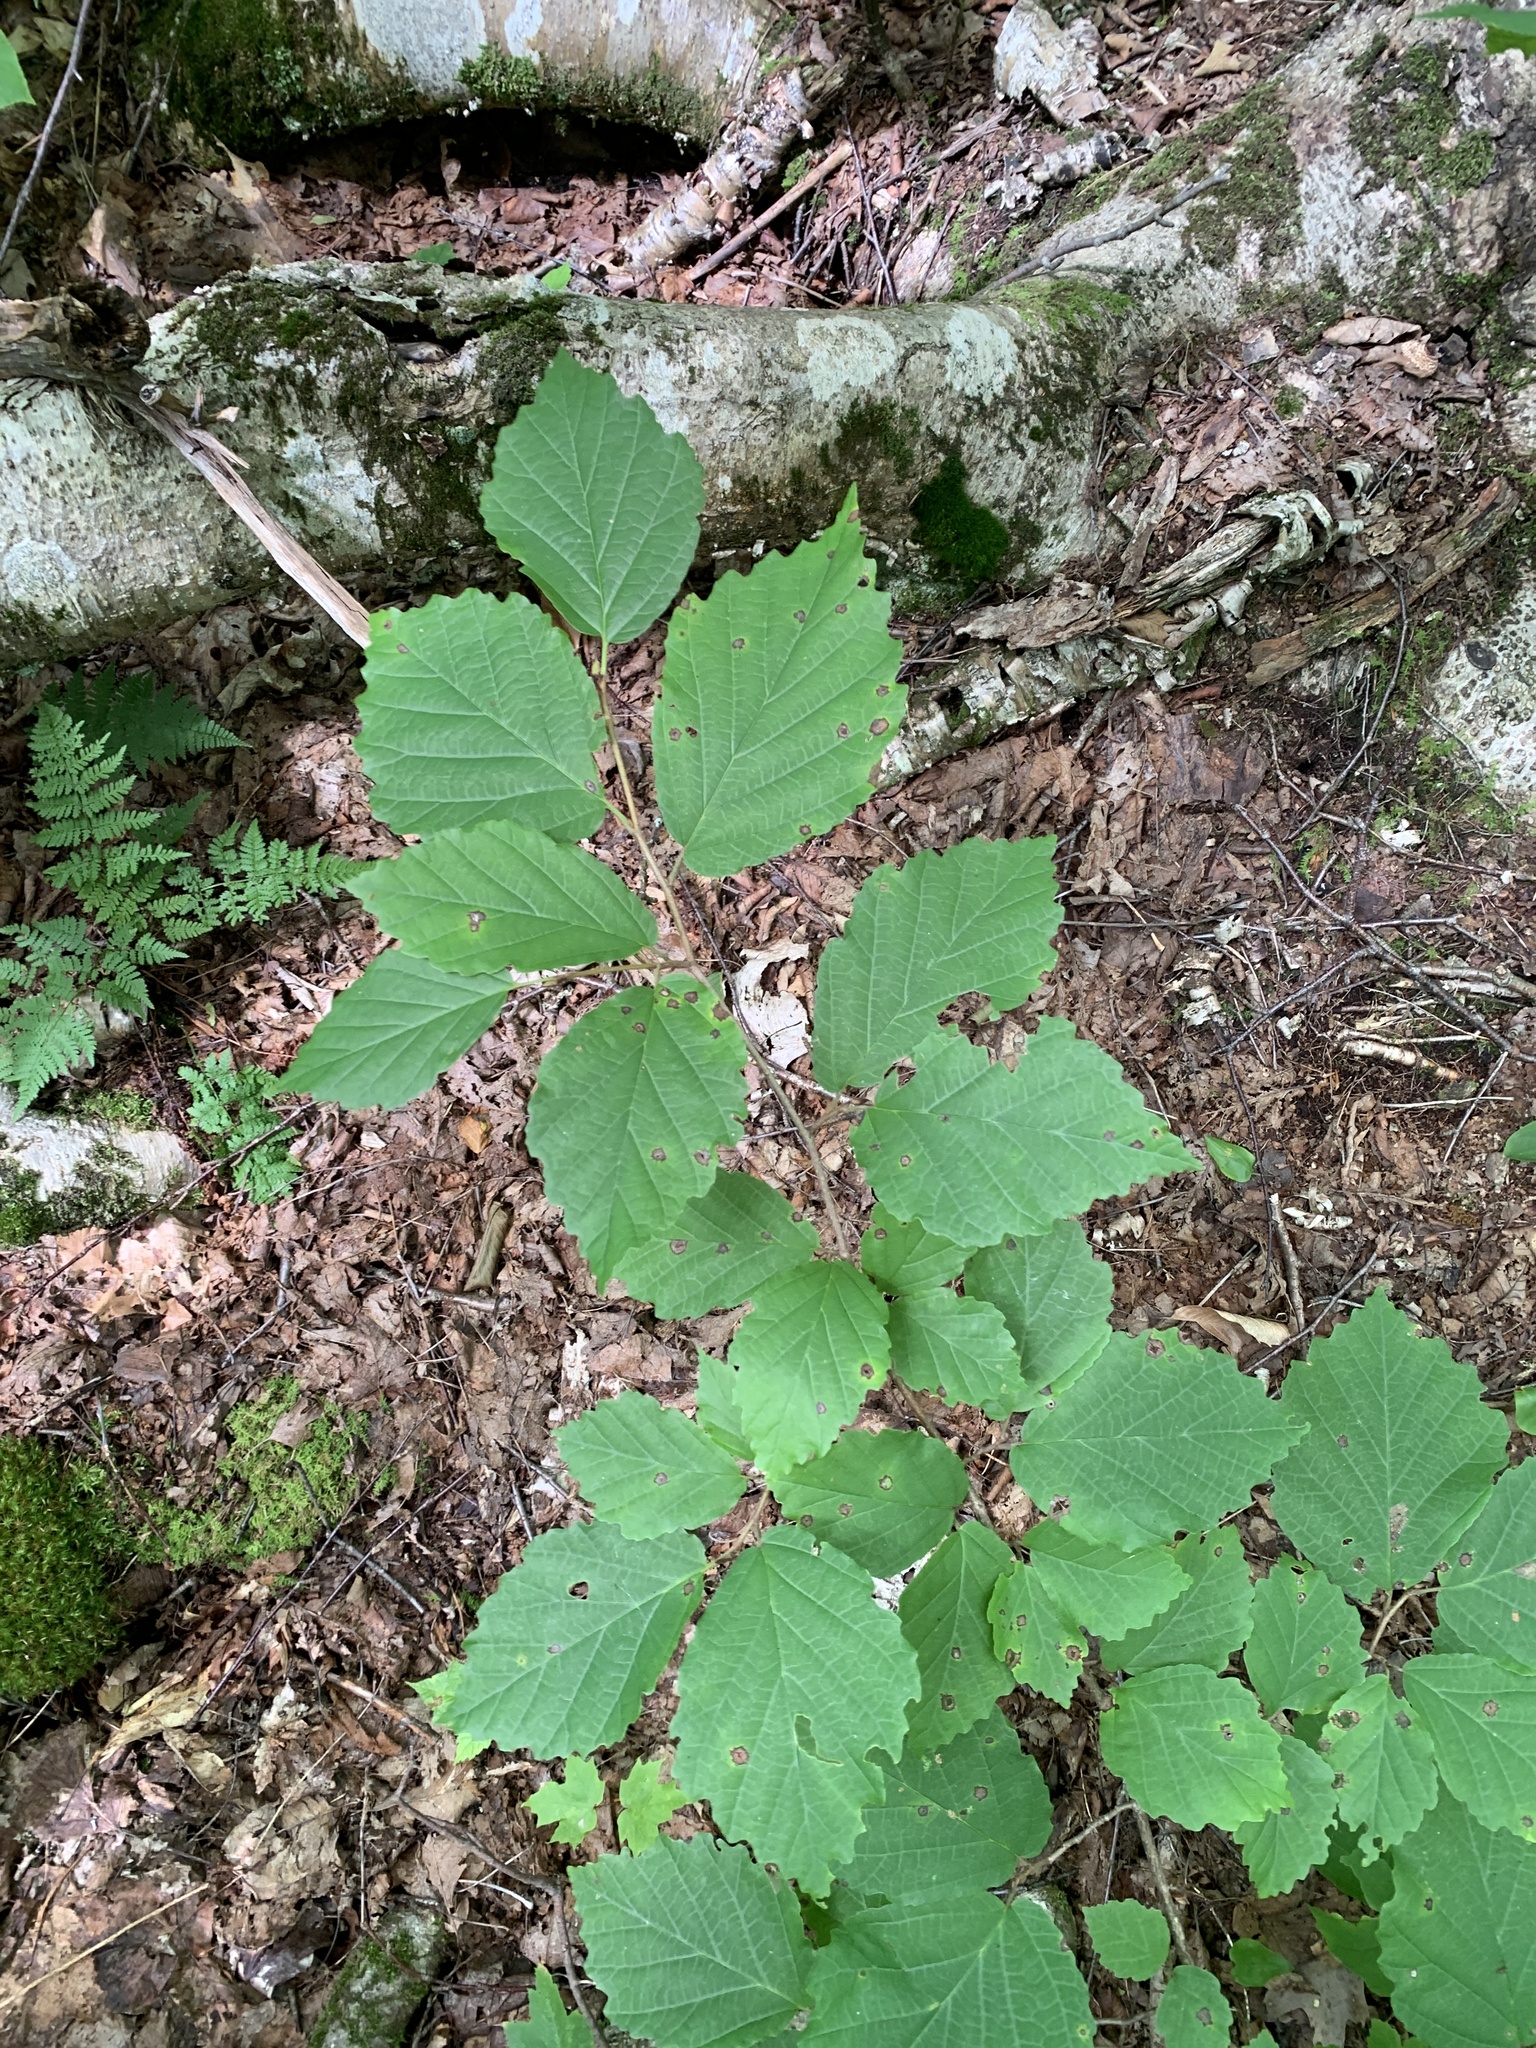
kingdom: Plantae
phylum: Tracheophyta
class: Magnoliopsida
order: Saxifragales
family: Hamamelidaceae
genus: Hamamelis
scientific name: Hamamelis virginiana
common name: Witch-hazel
